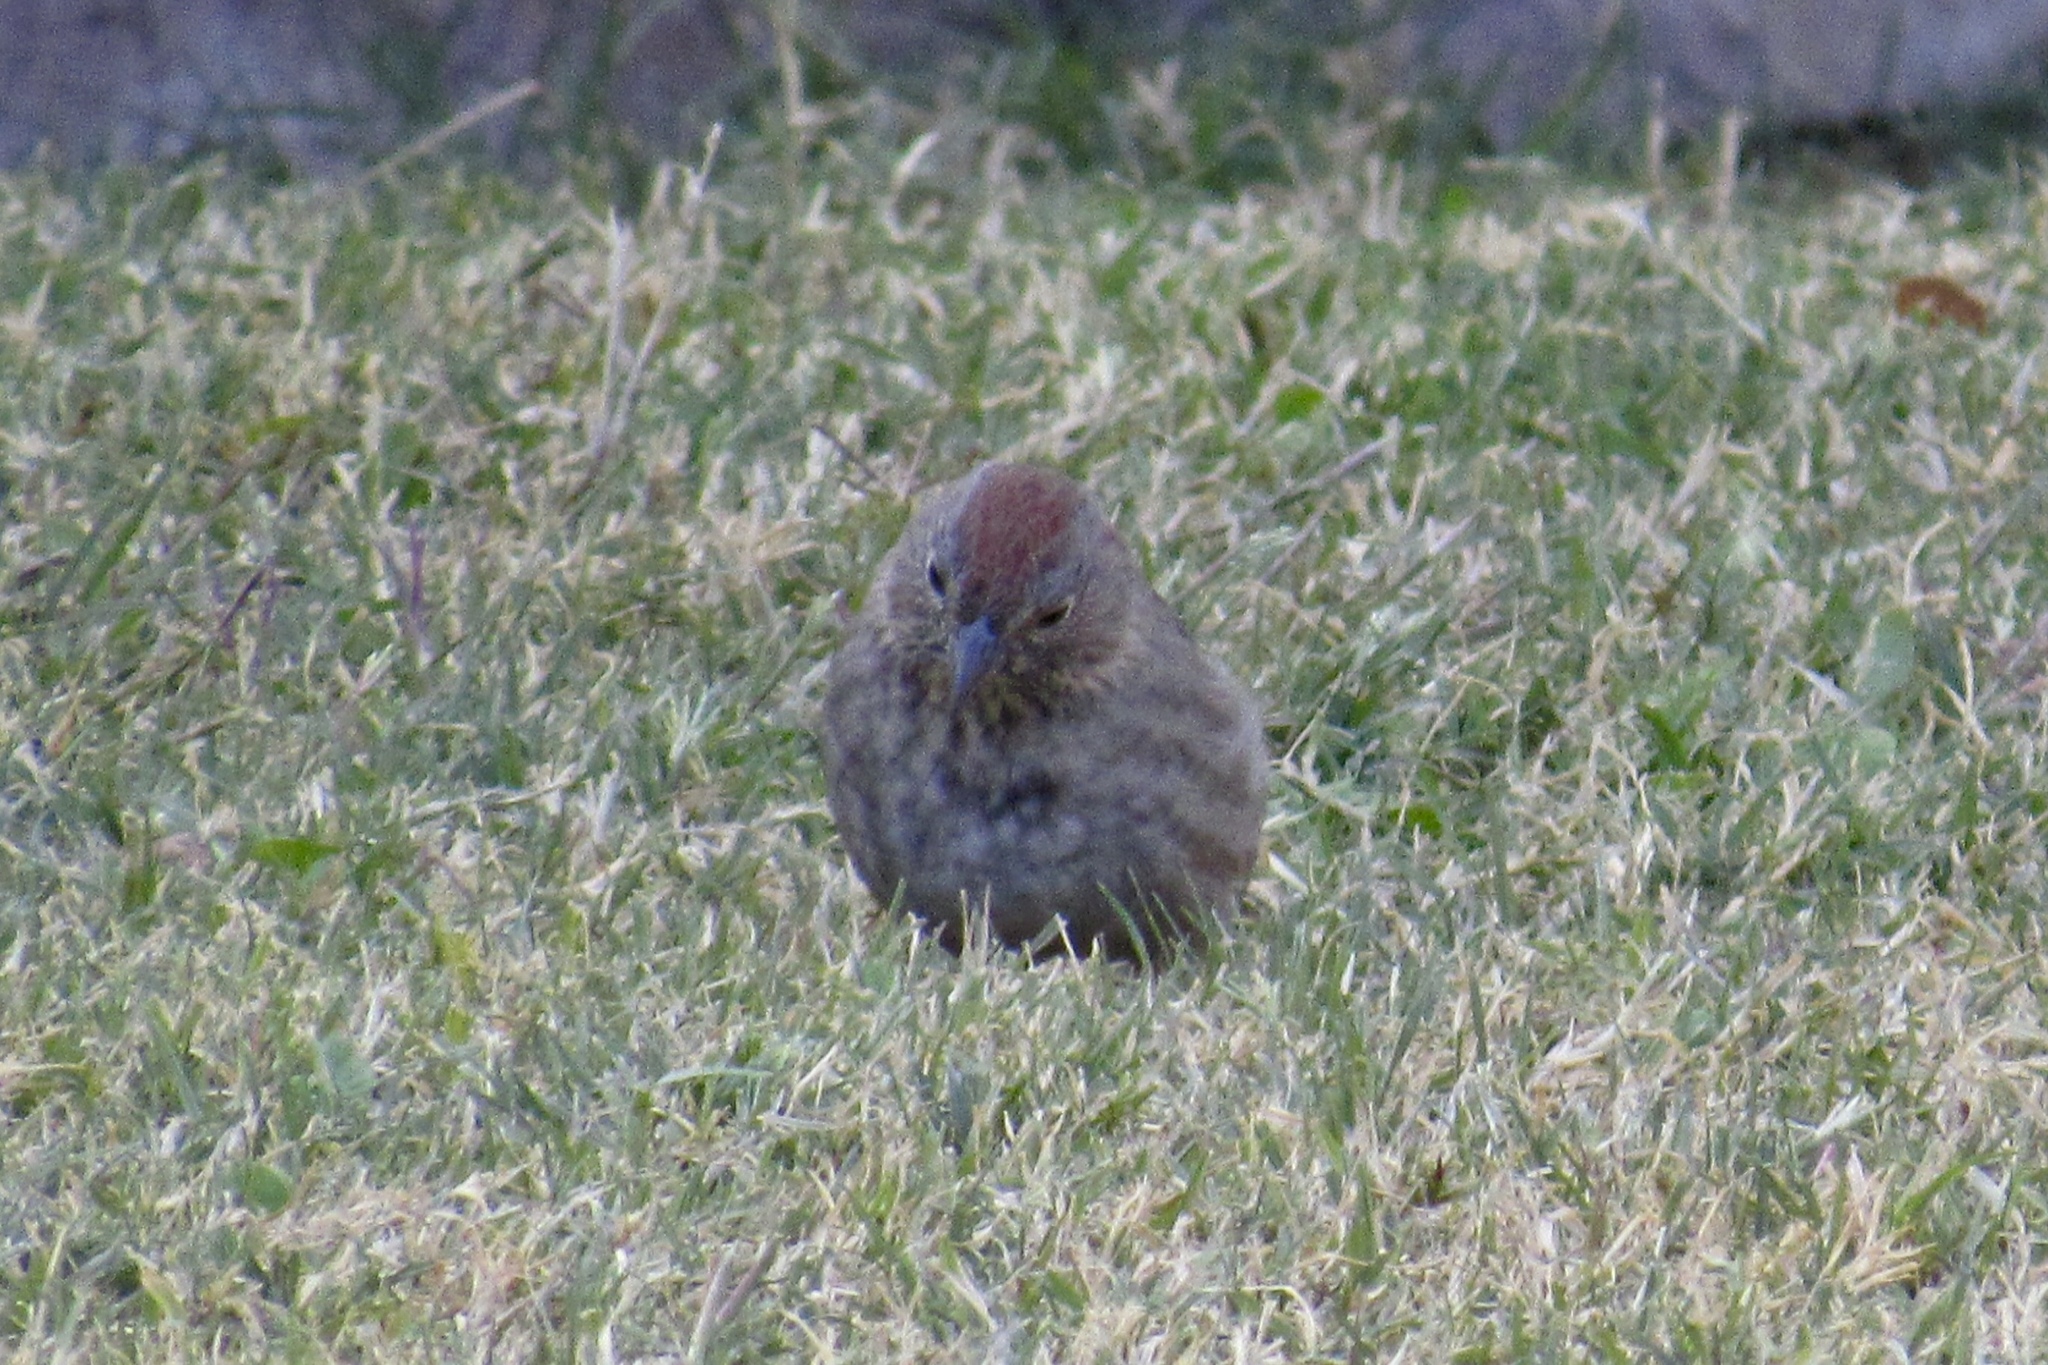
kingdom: Animalia
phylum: Chordata
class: Aves
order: Passeriformes
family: Passerellidae
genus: Melozone
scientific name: Melozone fusca
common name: Canyon towhee
